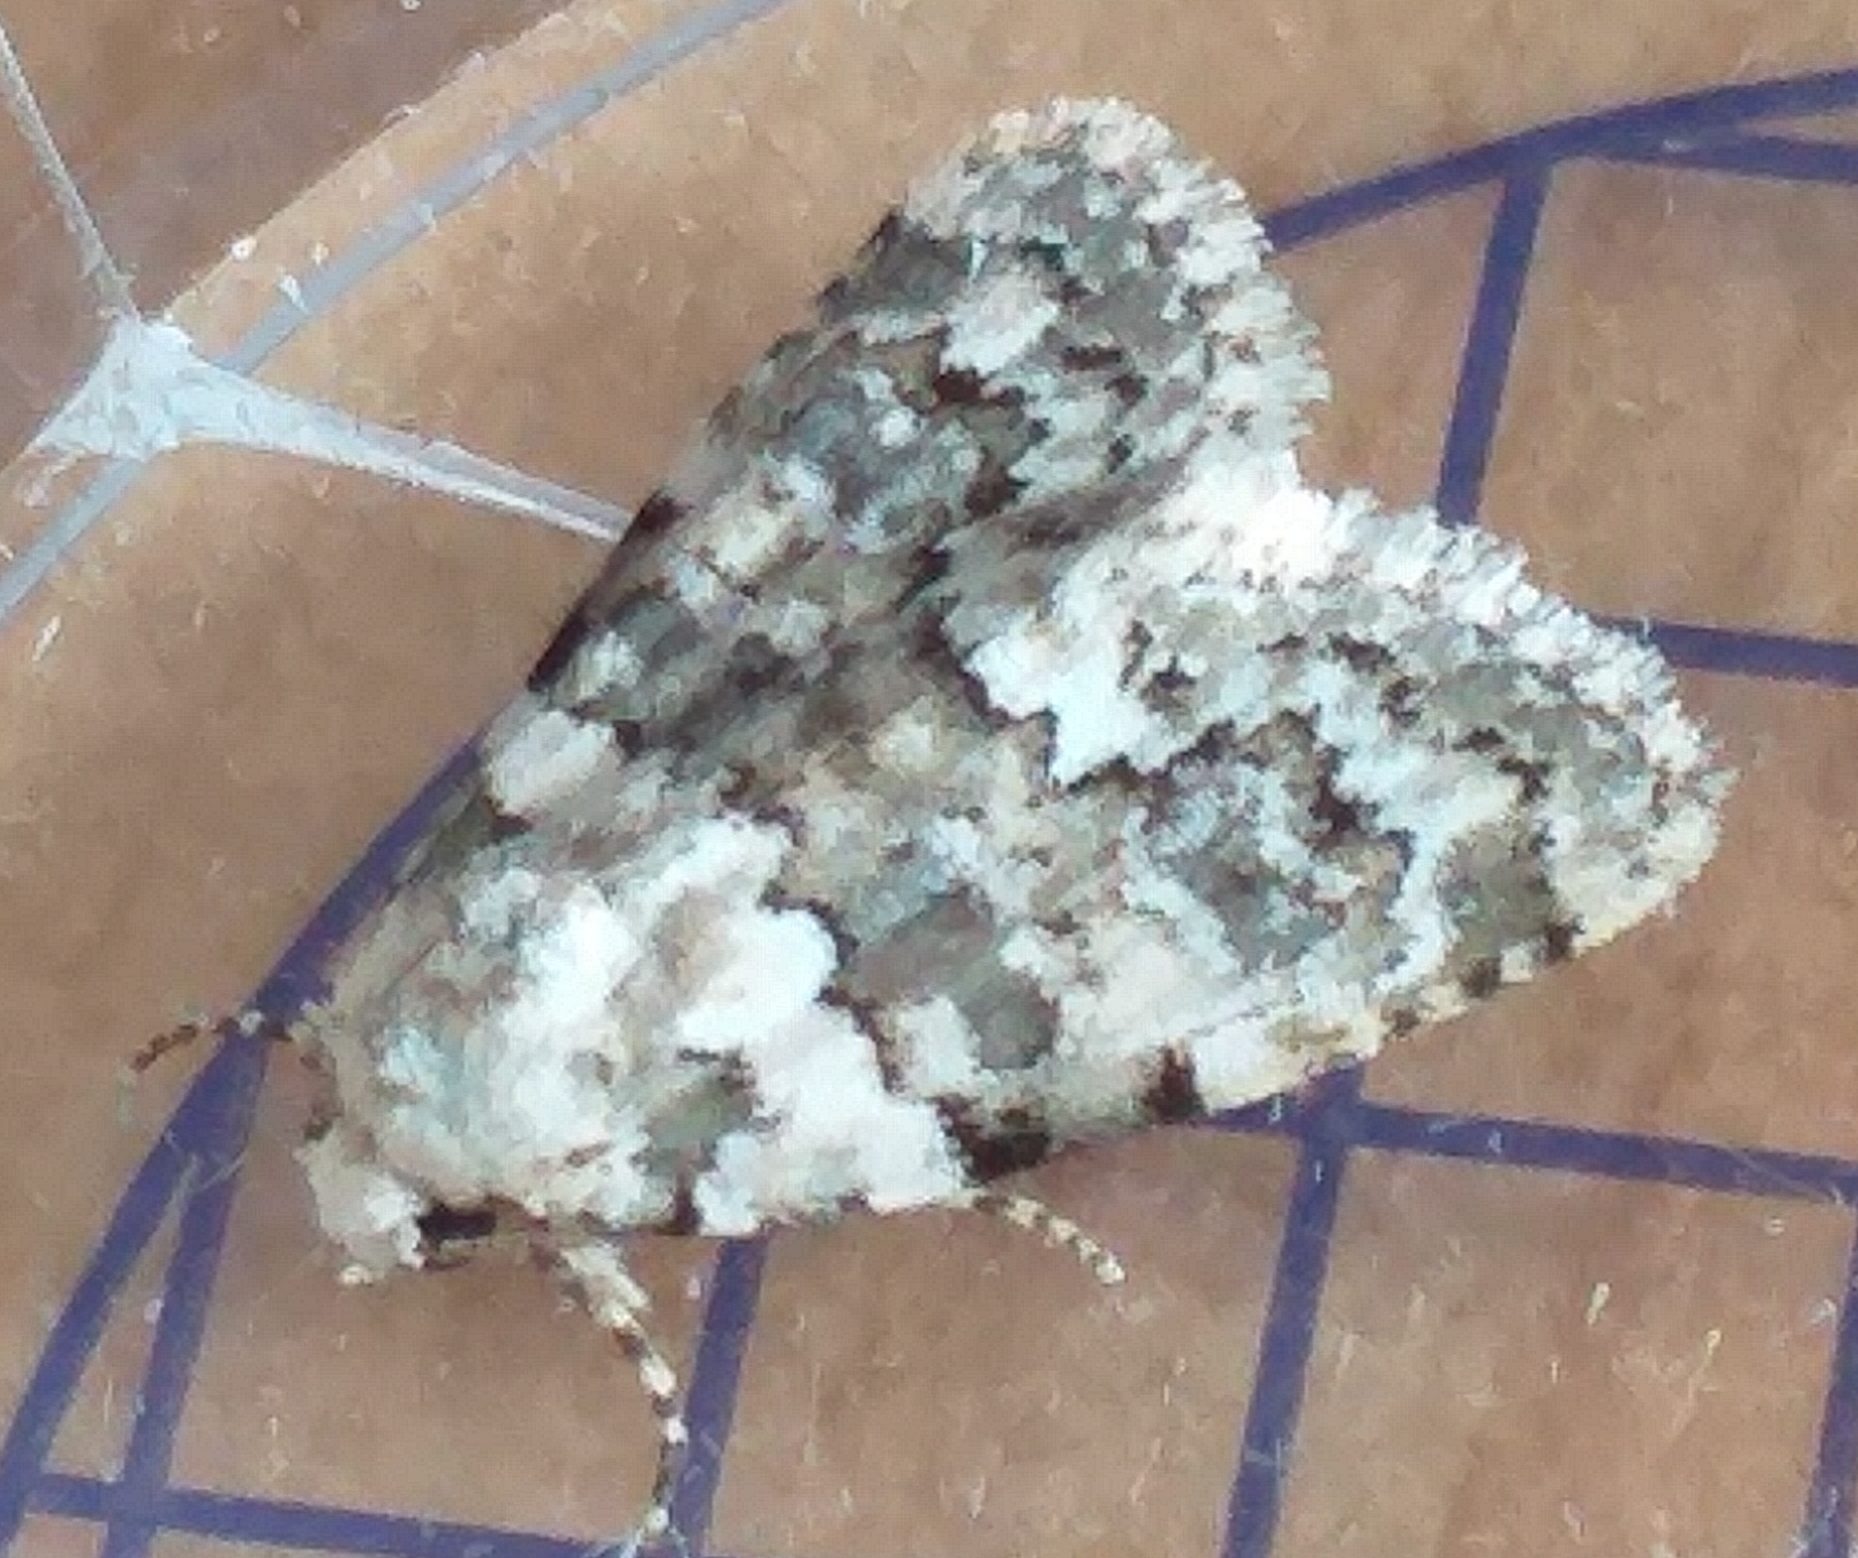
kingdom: Animalia
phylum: Arthropoda
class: Insecta
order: Lepidoptera
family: Noctuidae
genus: Bryophila
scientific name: Bryophila domestica
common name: Marbled beauty
